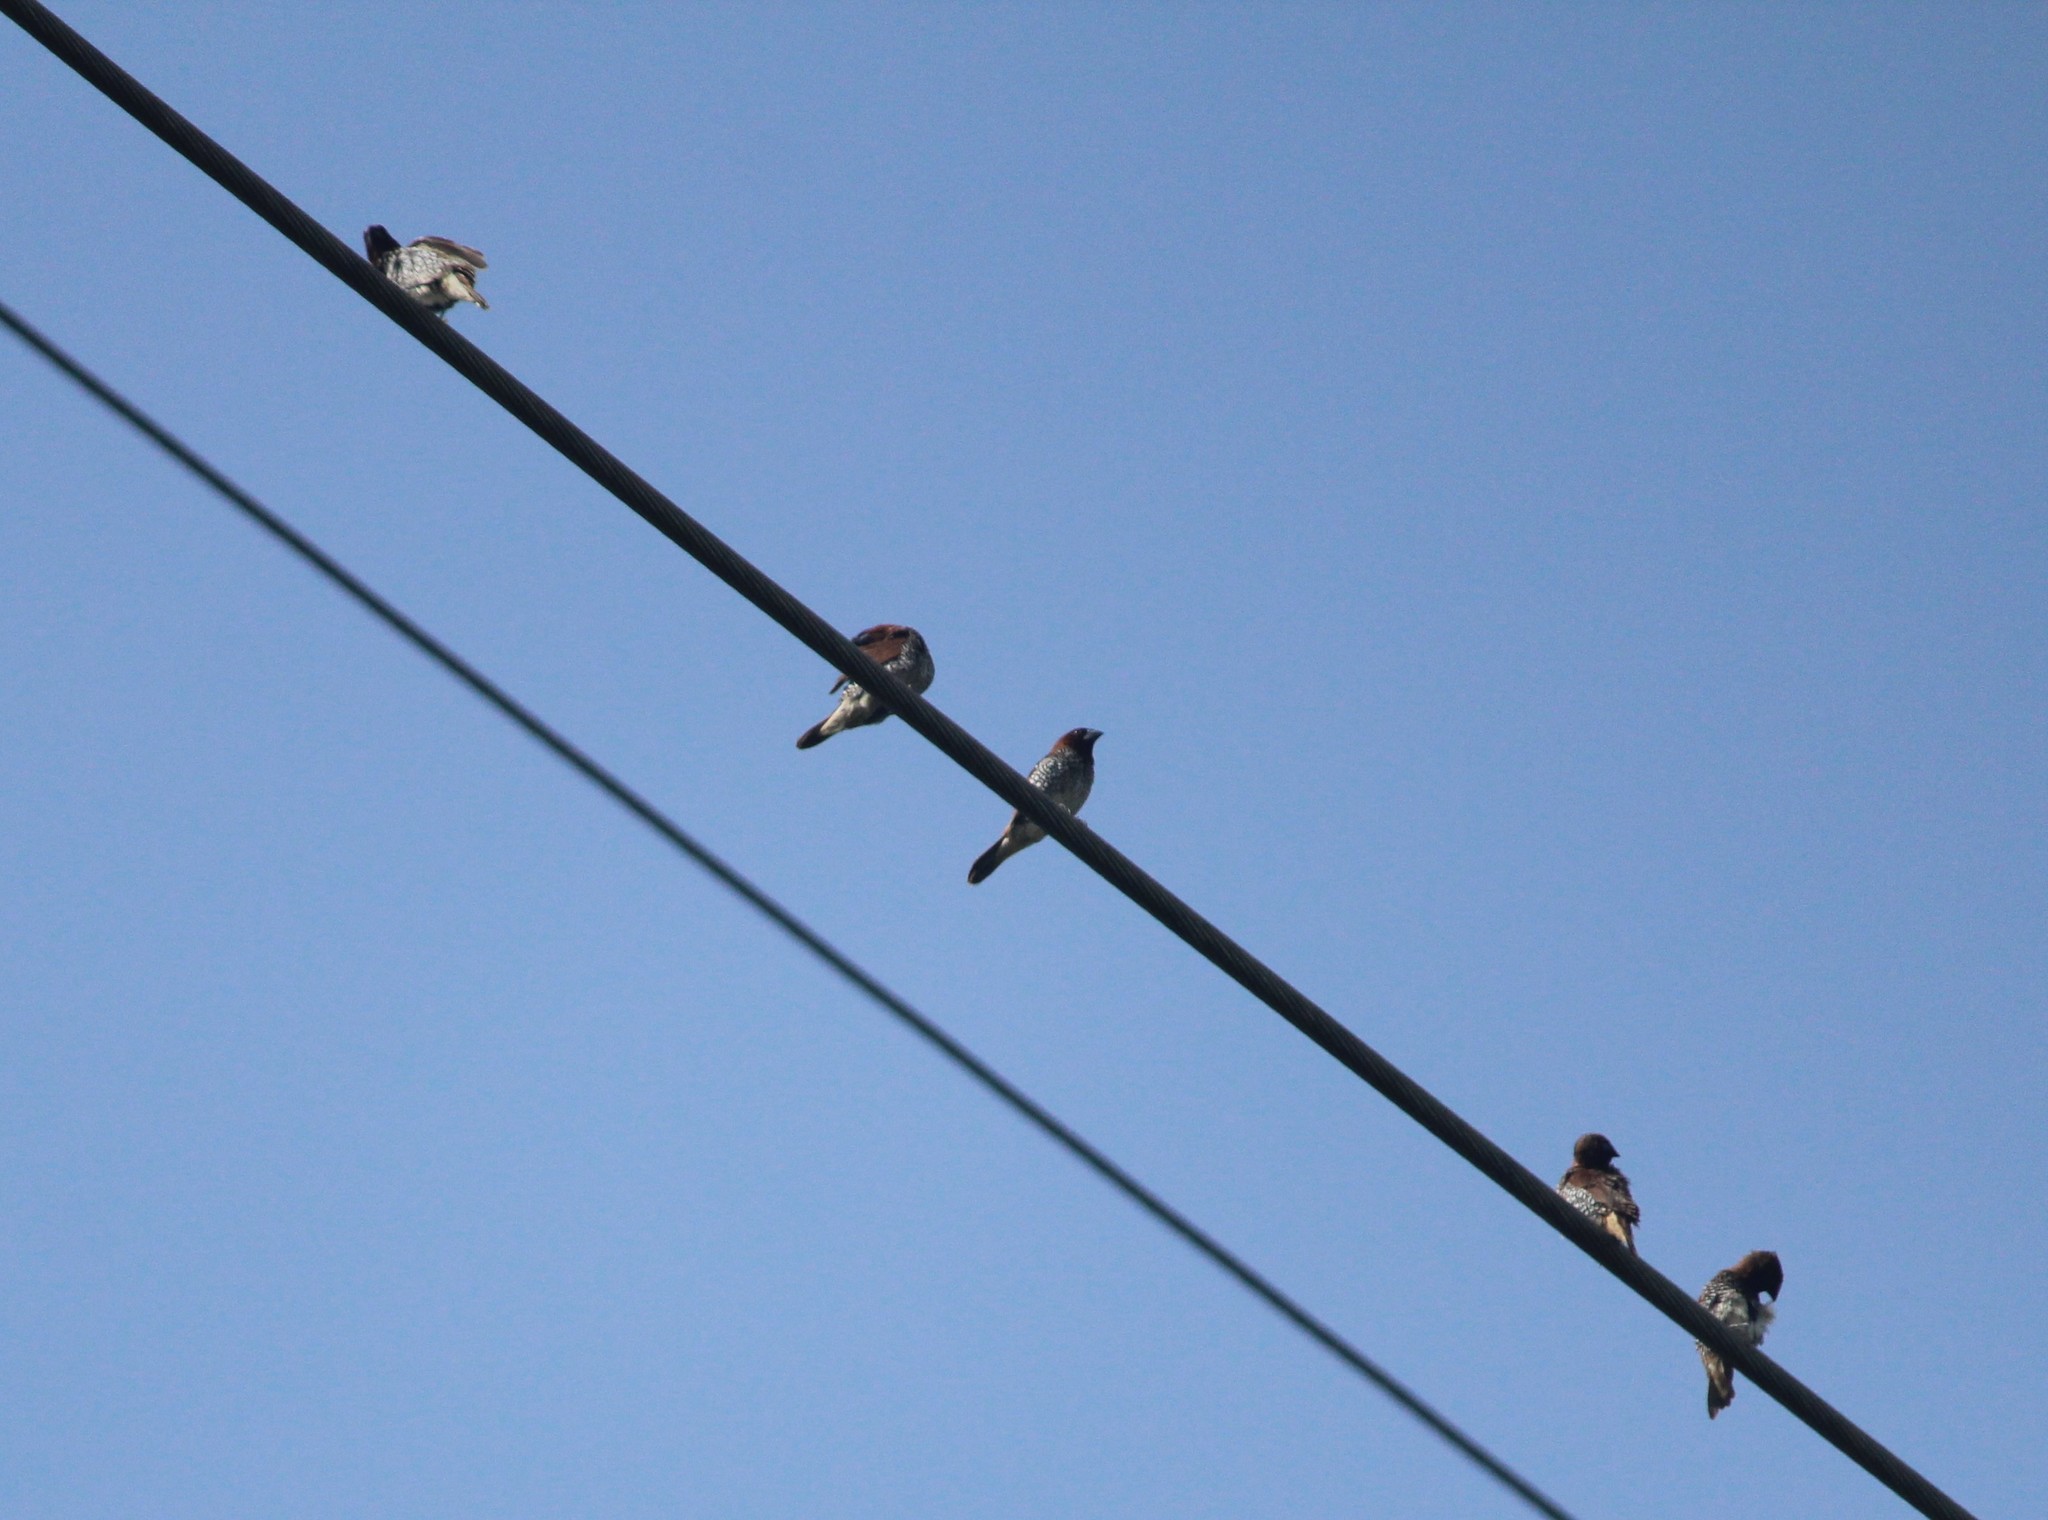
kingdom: Animalia
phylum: Chordata
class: Aves
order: Passeriformes
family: Estrildidae
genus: Lonchura
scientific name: Lonchura punctulata
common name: Scaly-breasted munia
